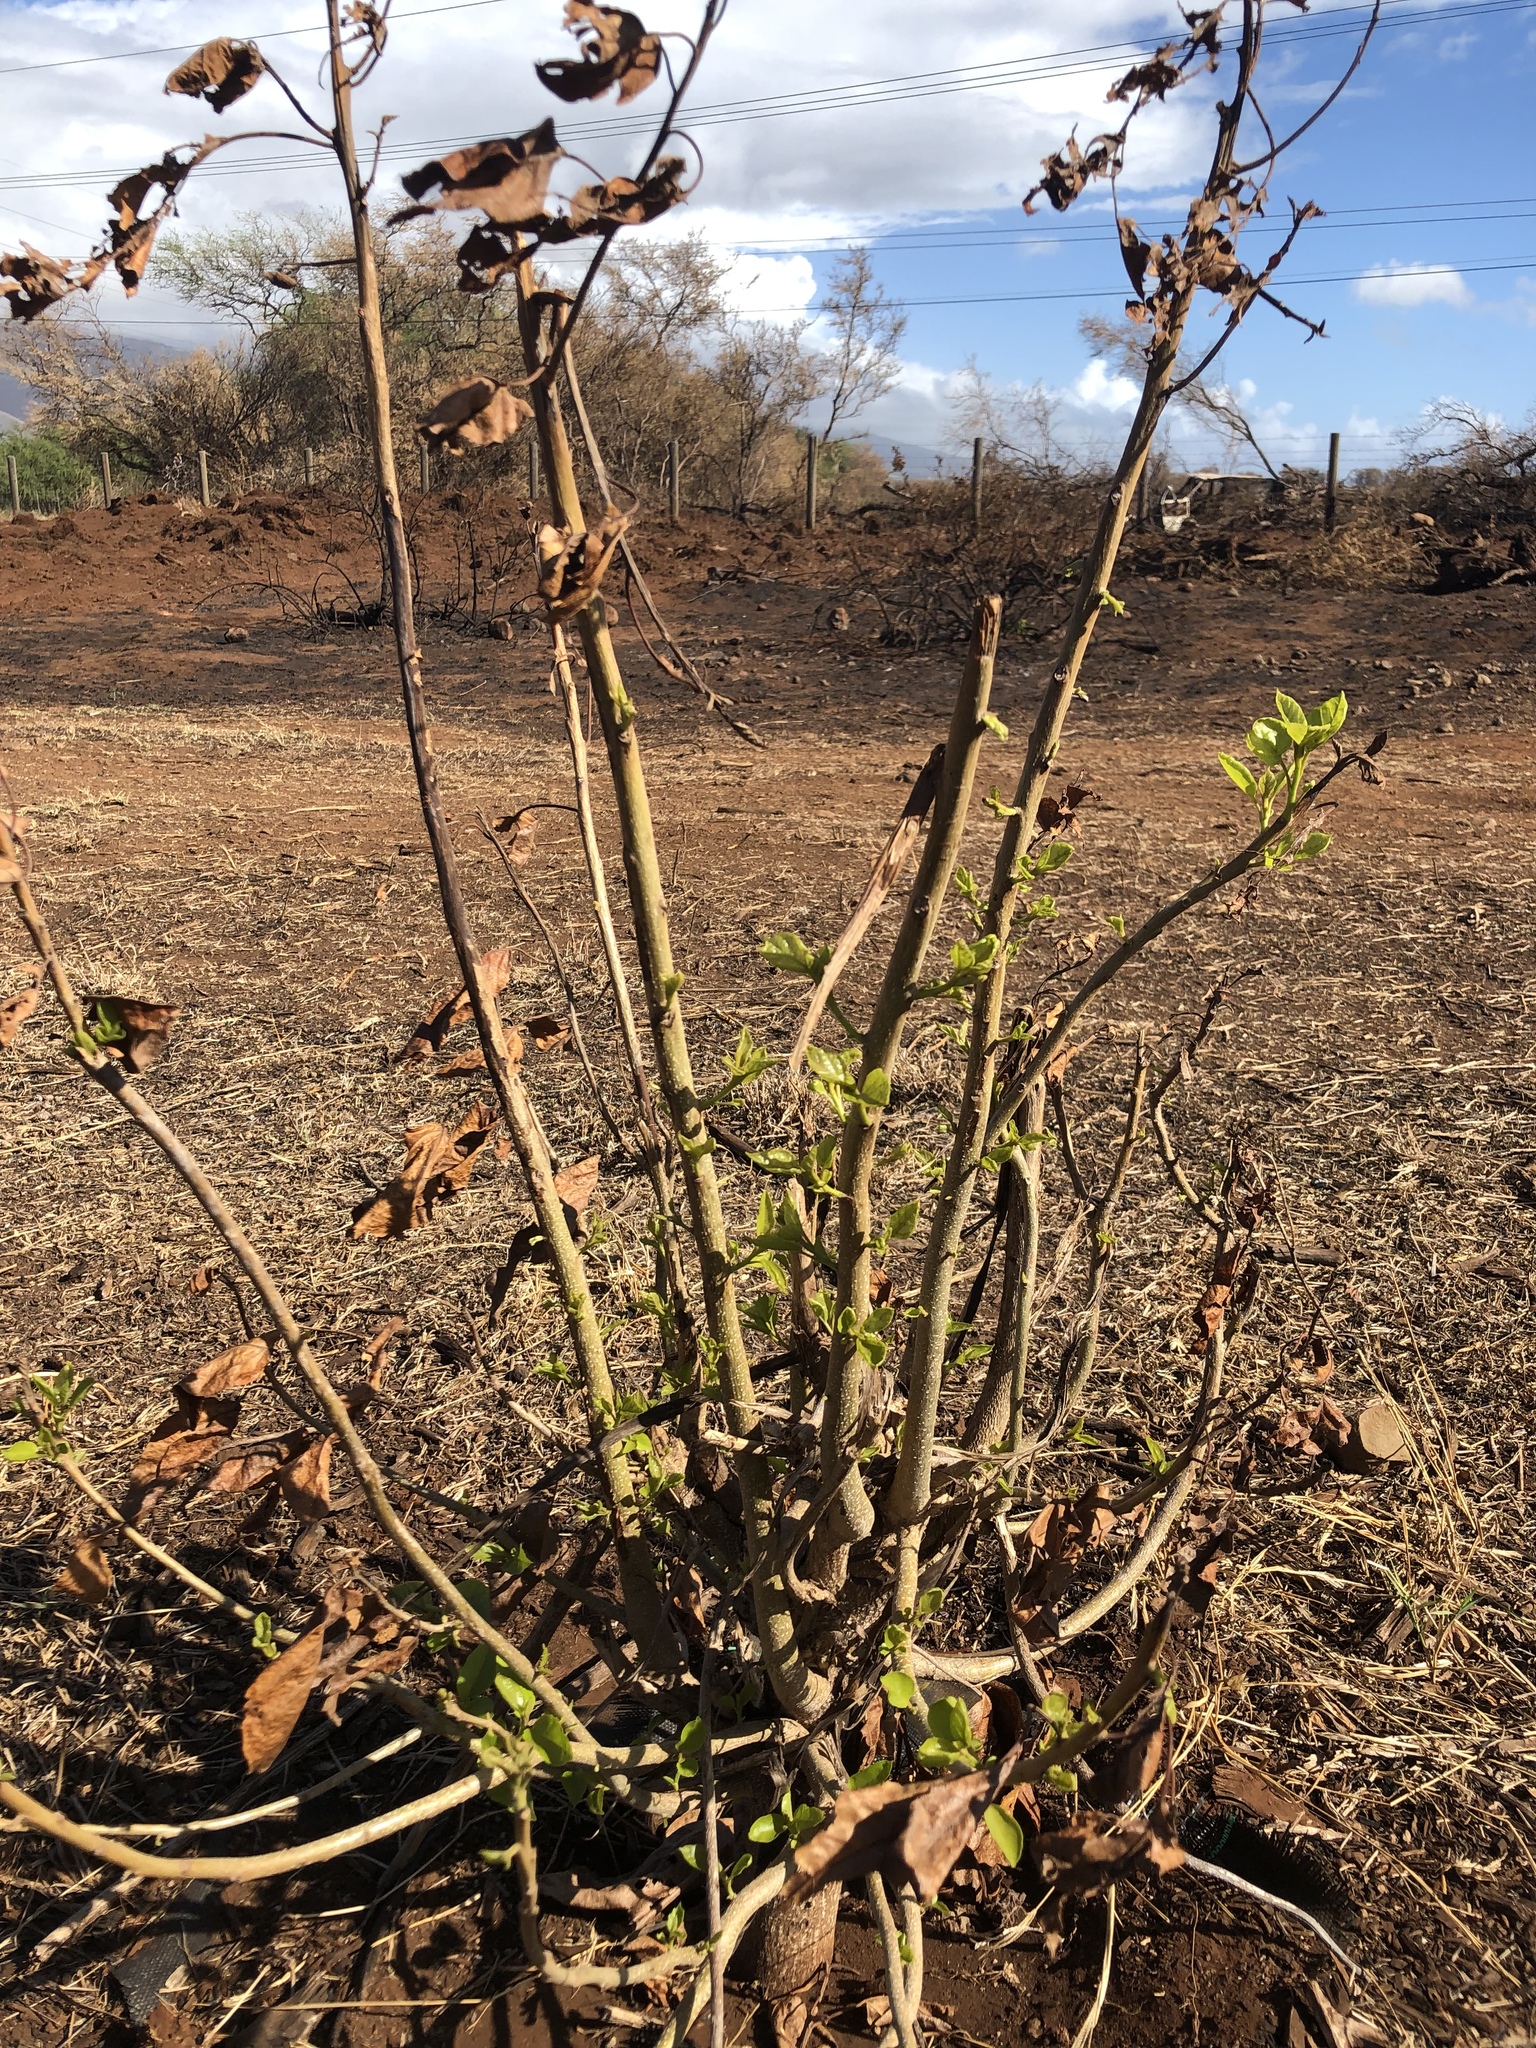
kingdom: Plantae
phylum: Tracheophyta
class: Magnoliopsida
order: Boraginales
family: Cordiaceae
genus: Cordia
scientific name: Cordia subcordata
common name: Mareer
